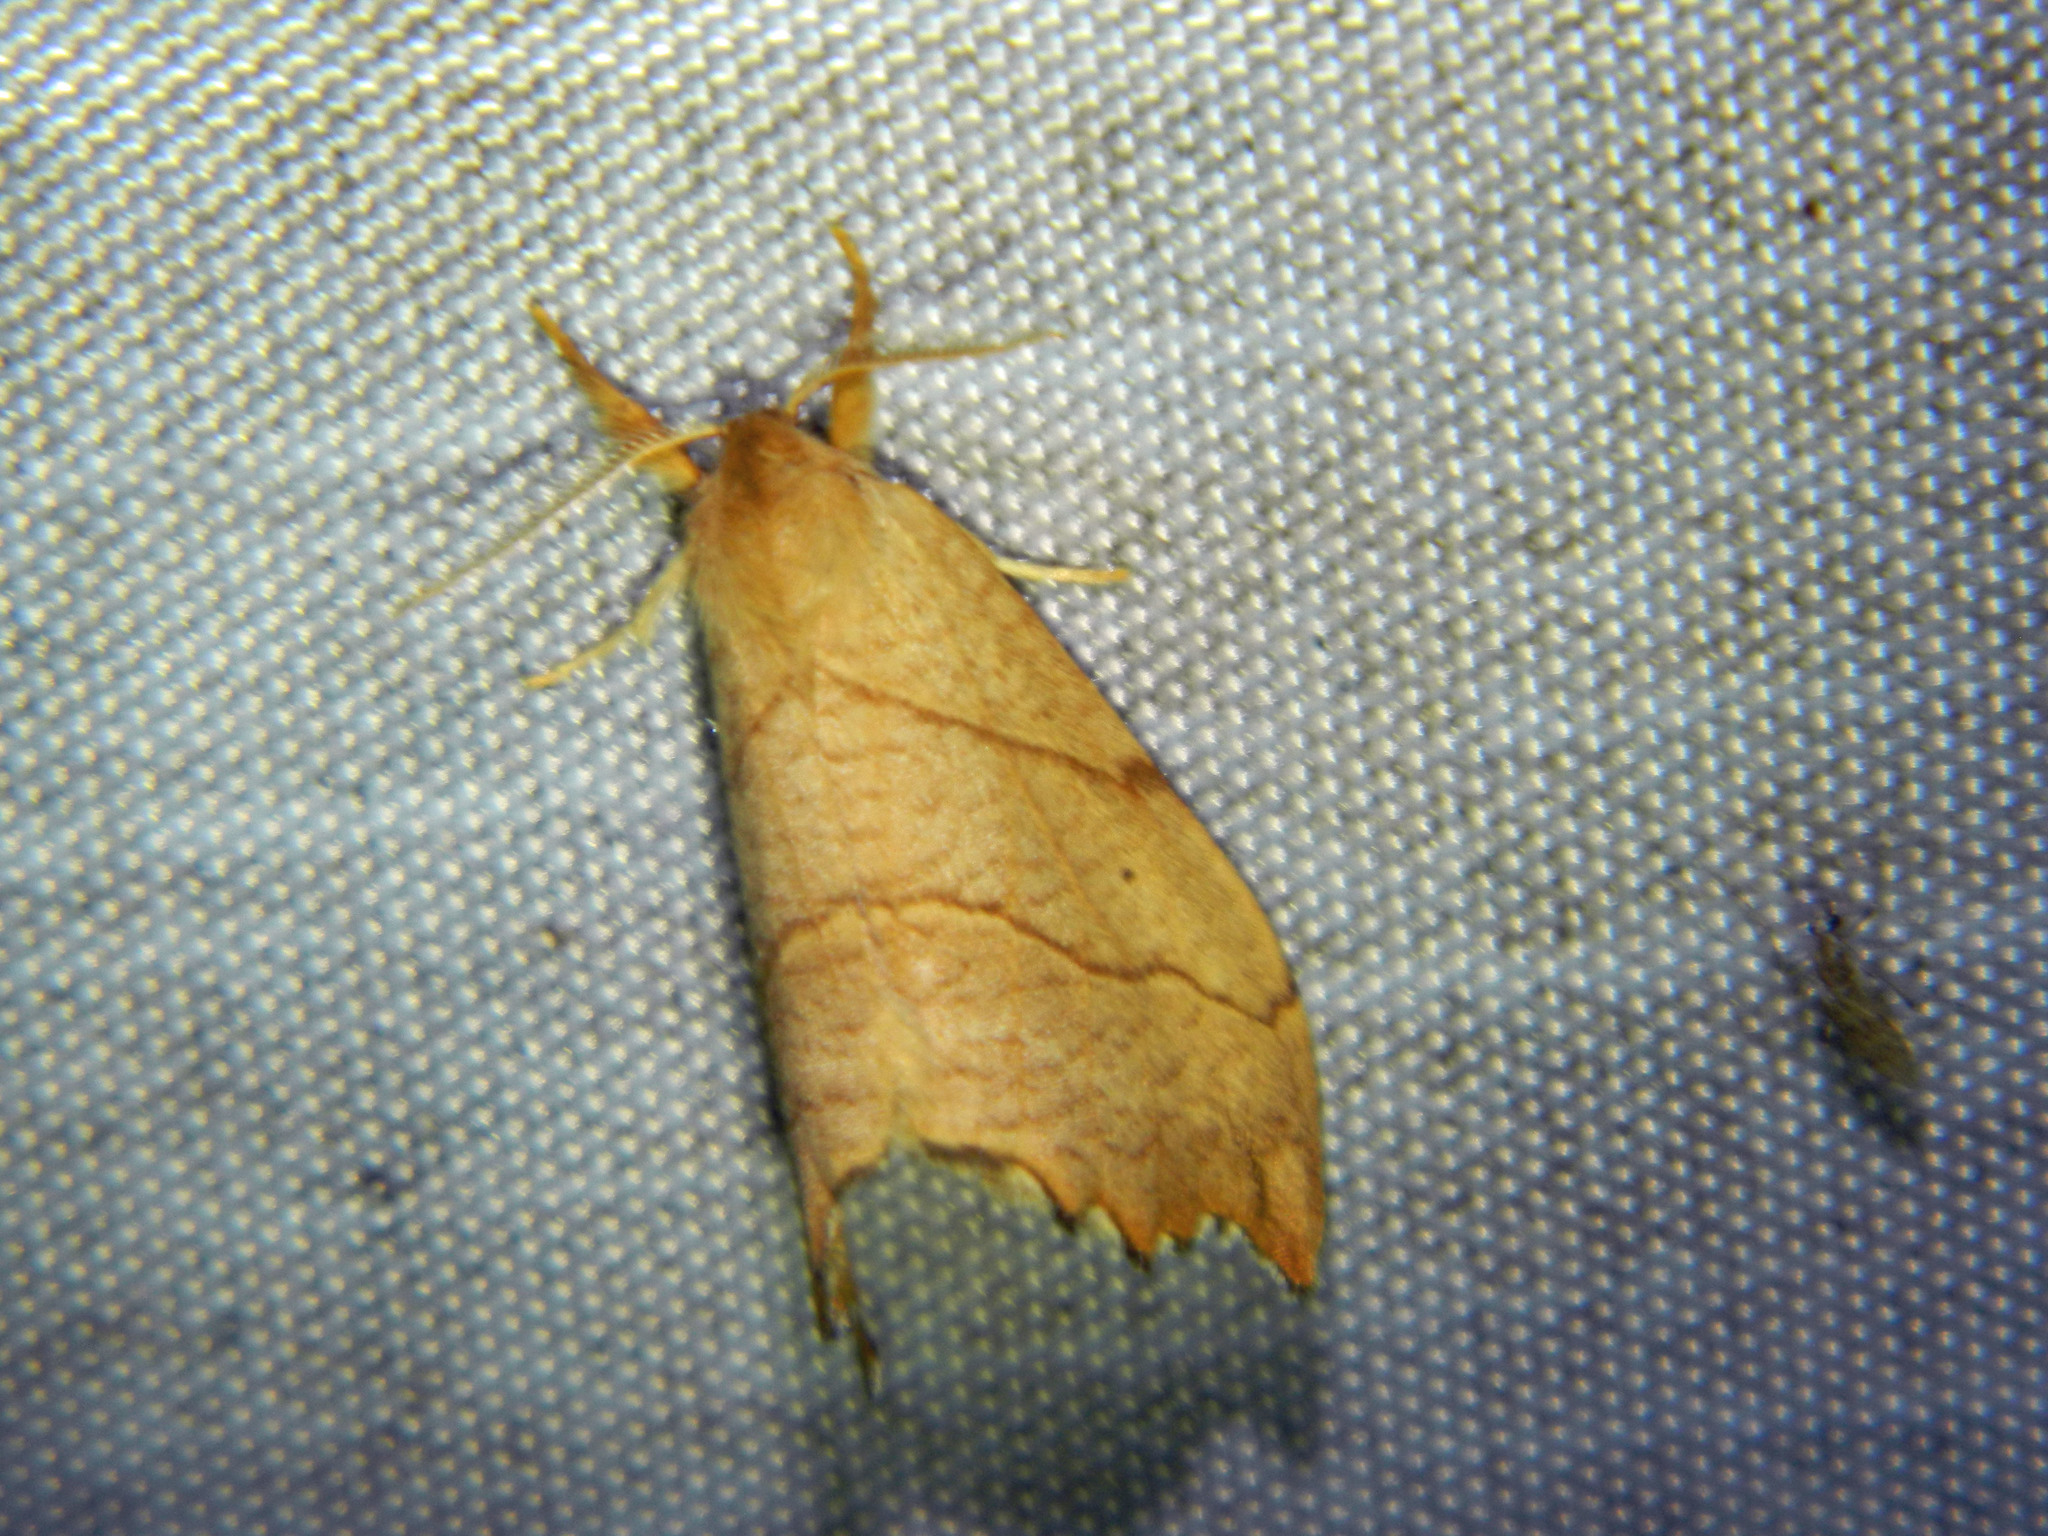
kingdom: Animalia
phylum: Arthropoda
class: Insecta
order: Lepidoptera
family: Drepanidae
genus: Falcaria
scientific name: Falcaria bilineata
